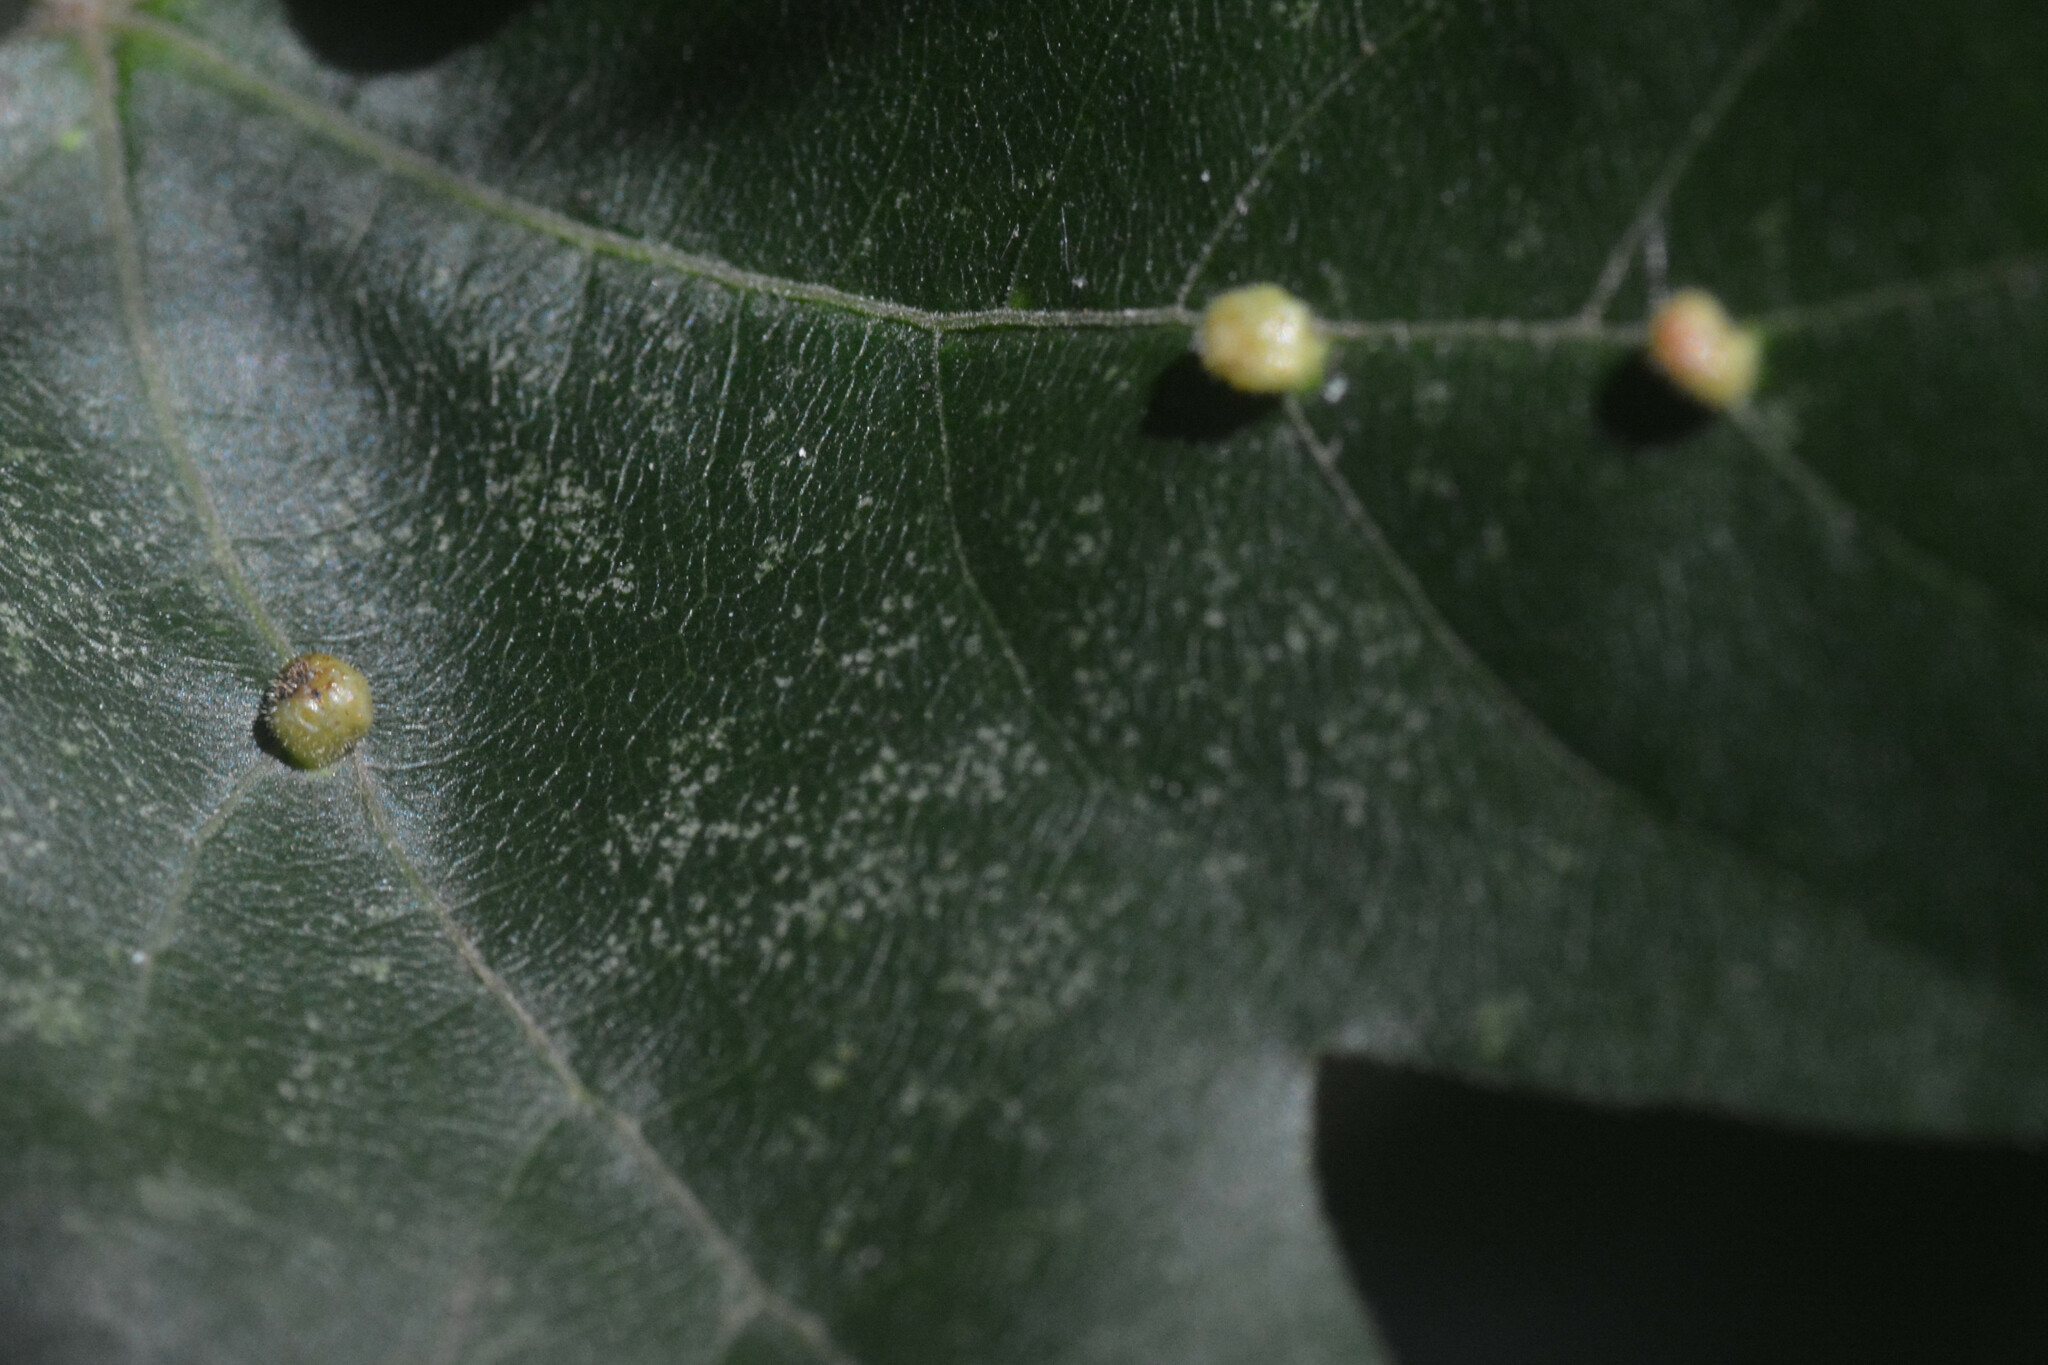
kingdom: Animalia
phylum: Arthropoda
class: Arachnida
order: Trombidiformes
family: Eriophyidae
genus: Aceria
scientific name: Aceria macrochelus
